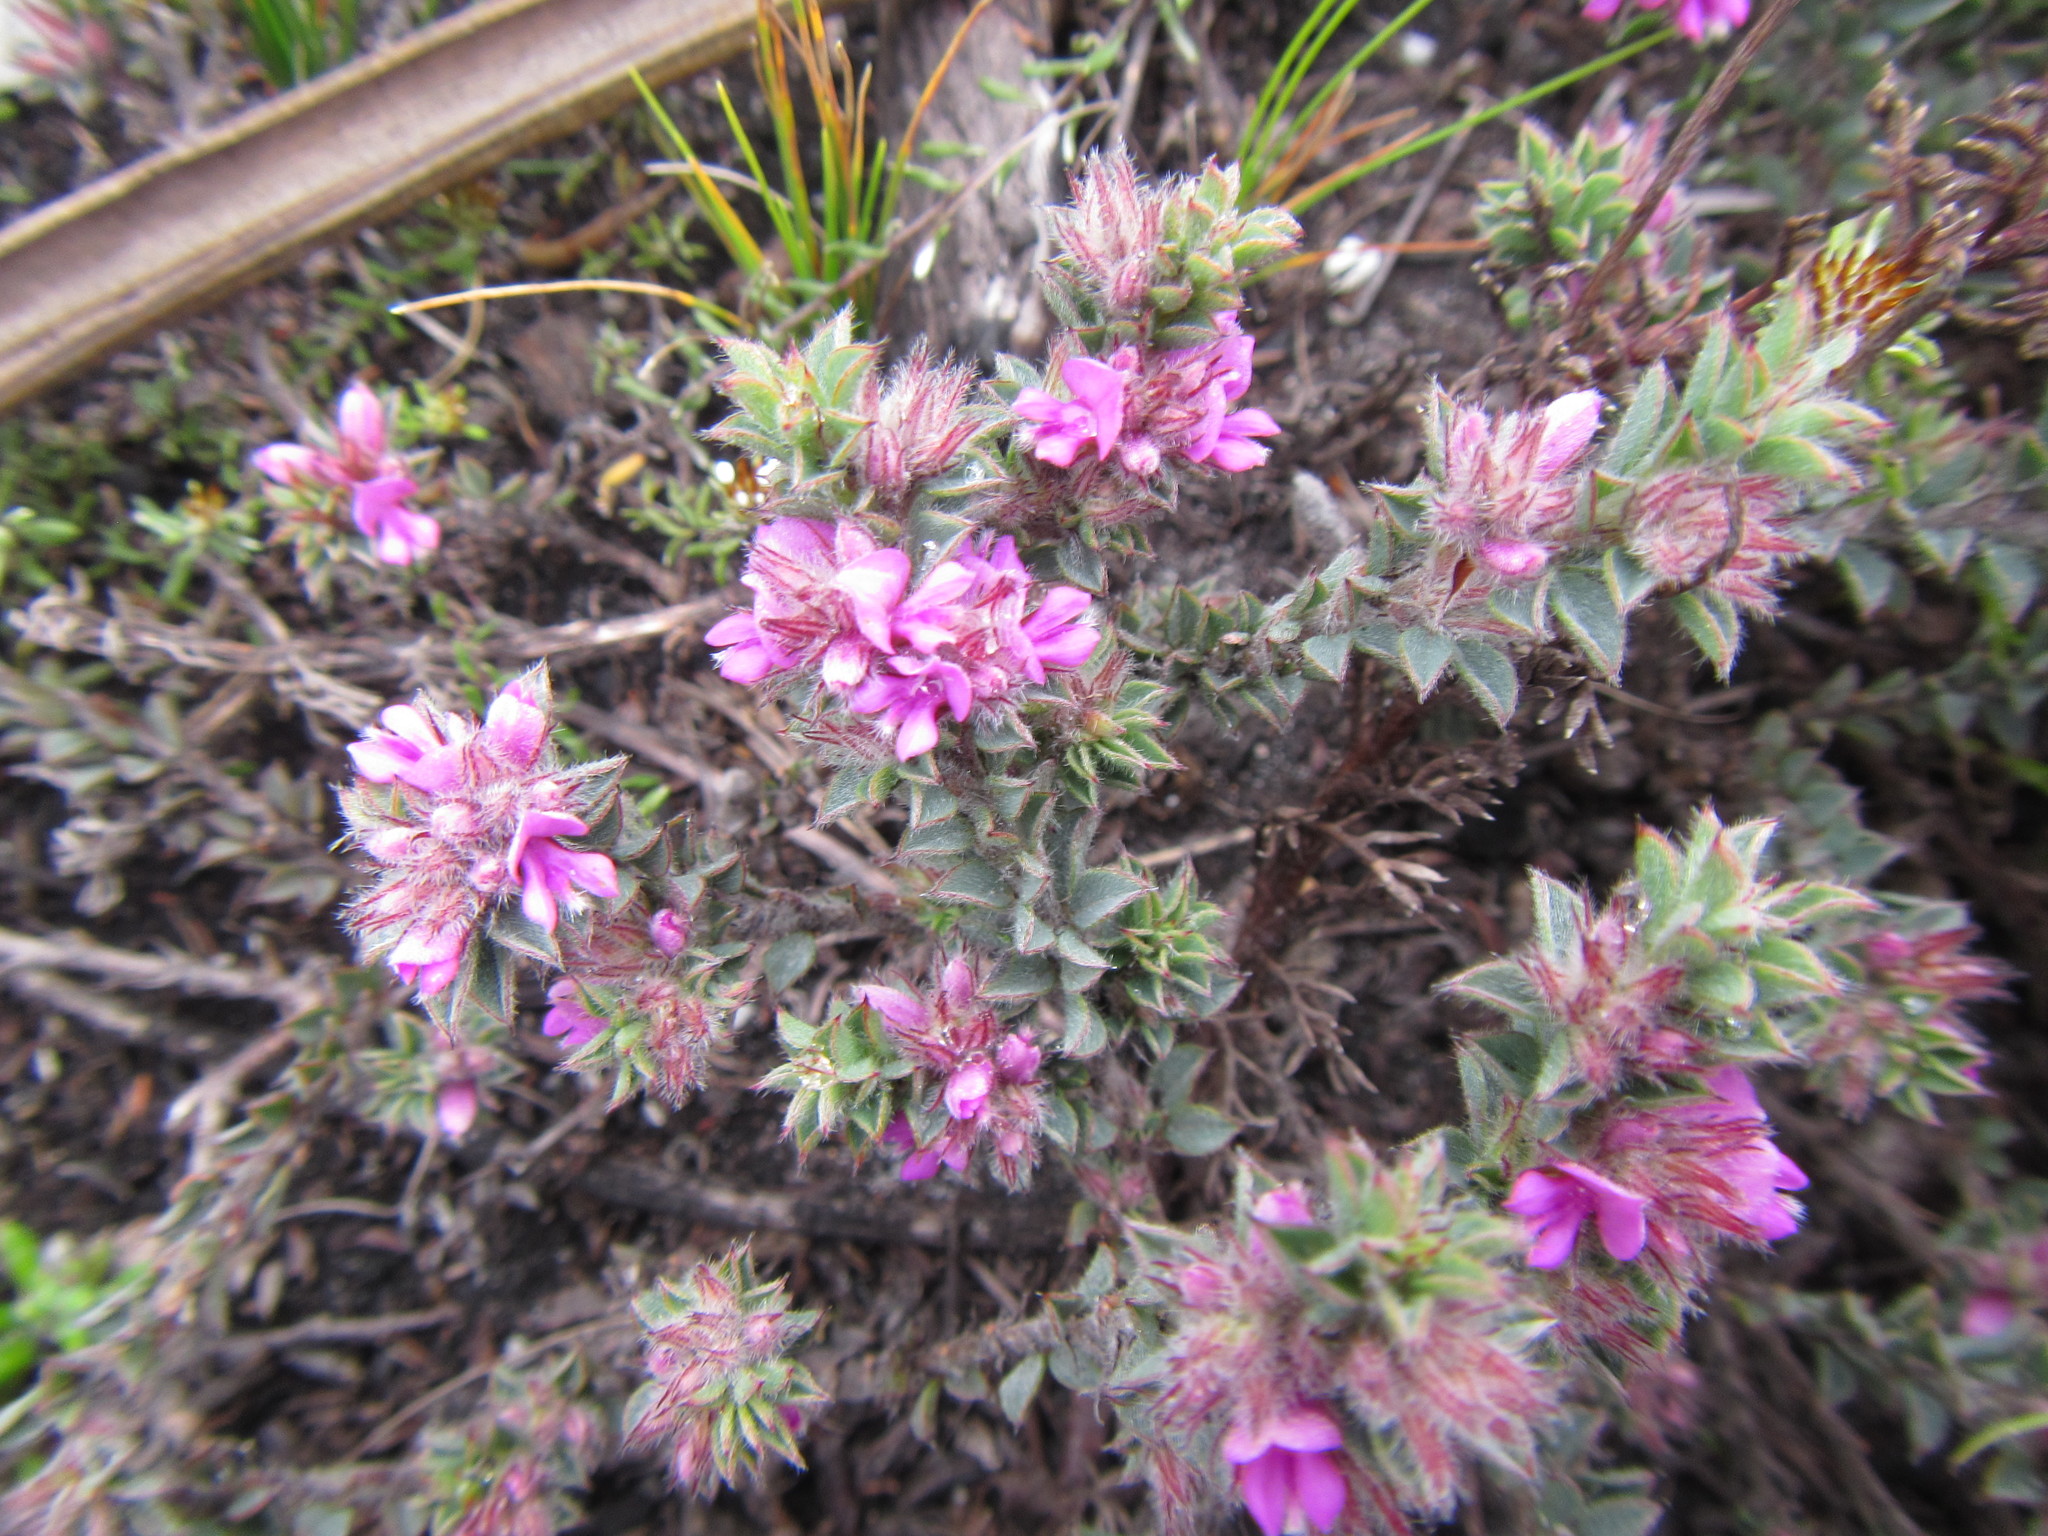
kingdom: Plantae
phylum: Tracheophyta
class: Magnoliopsida
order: Fabales
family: Fabaceae
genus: Indigofera
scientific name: Indigofera glomerata
